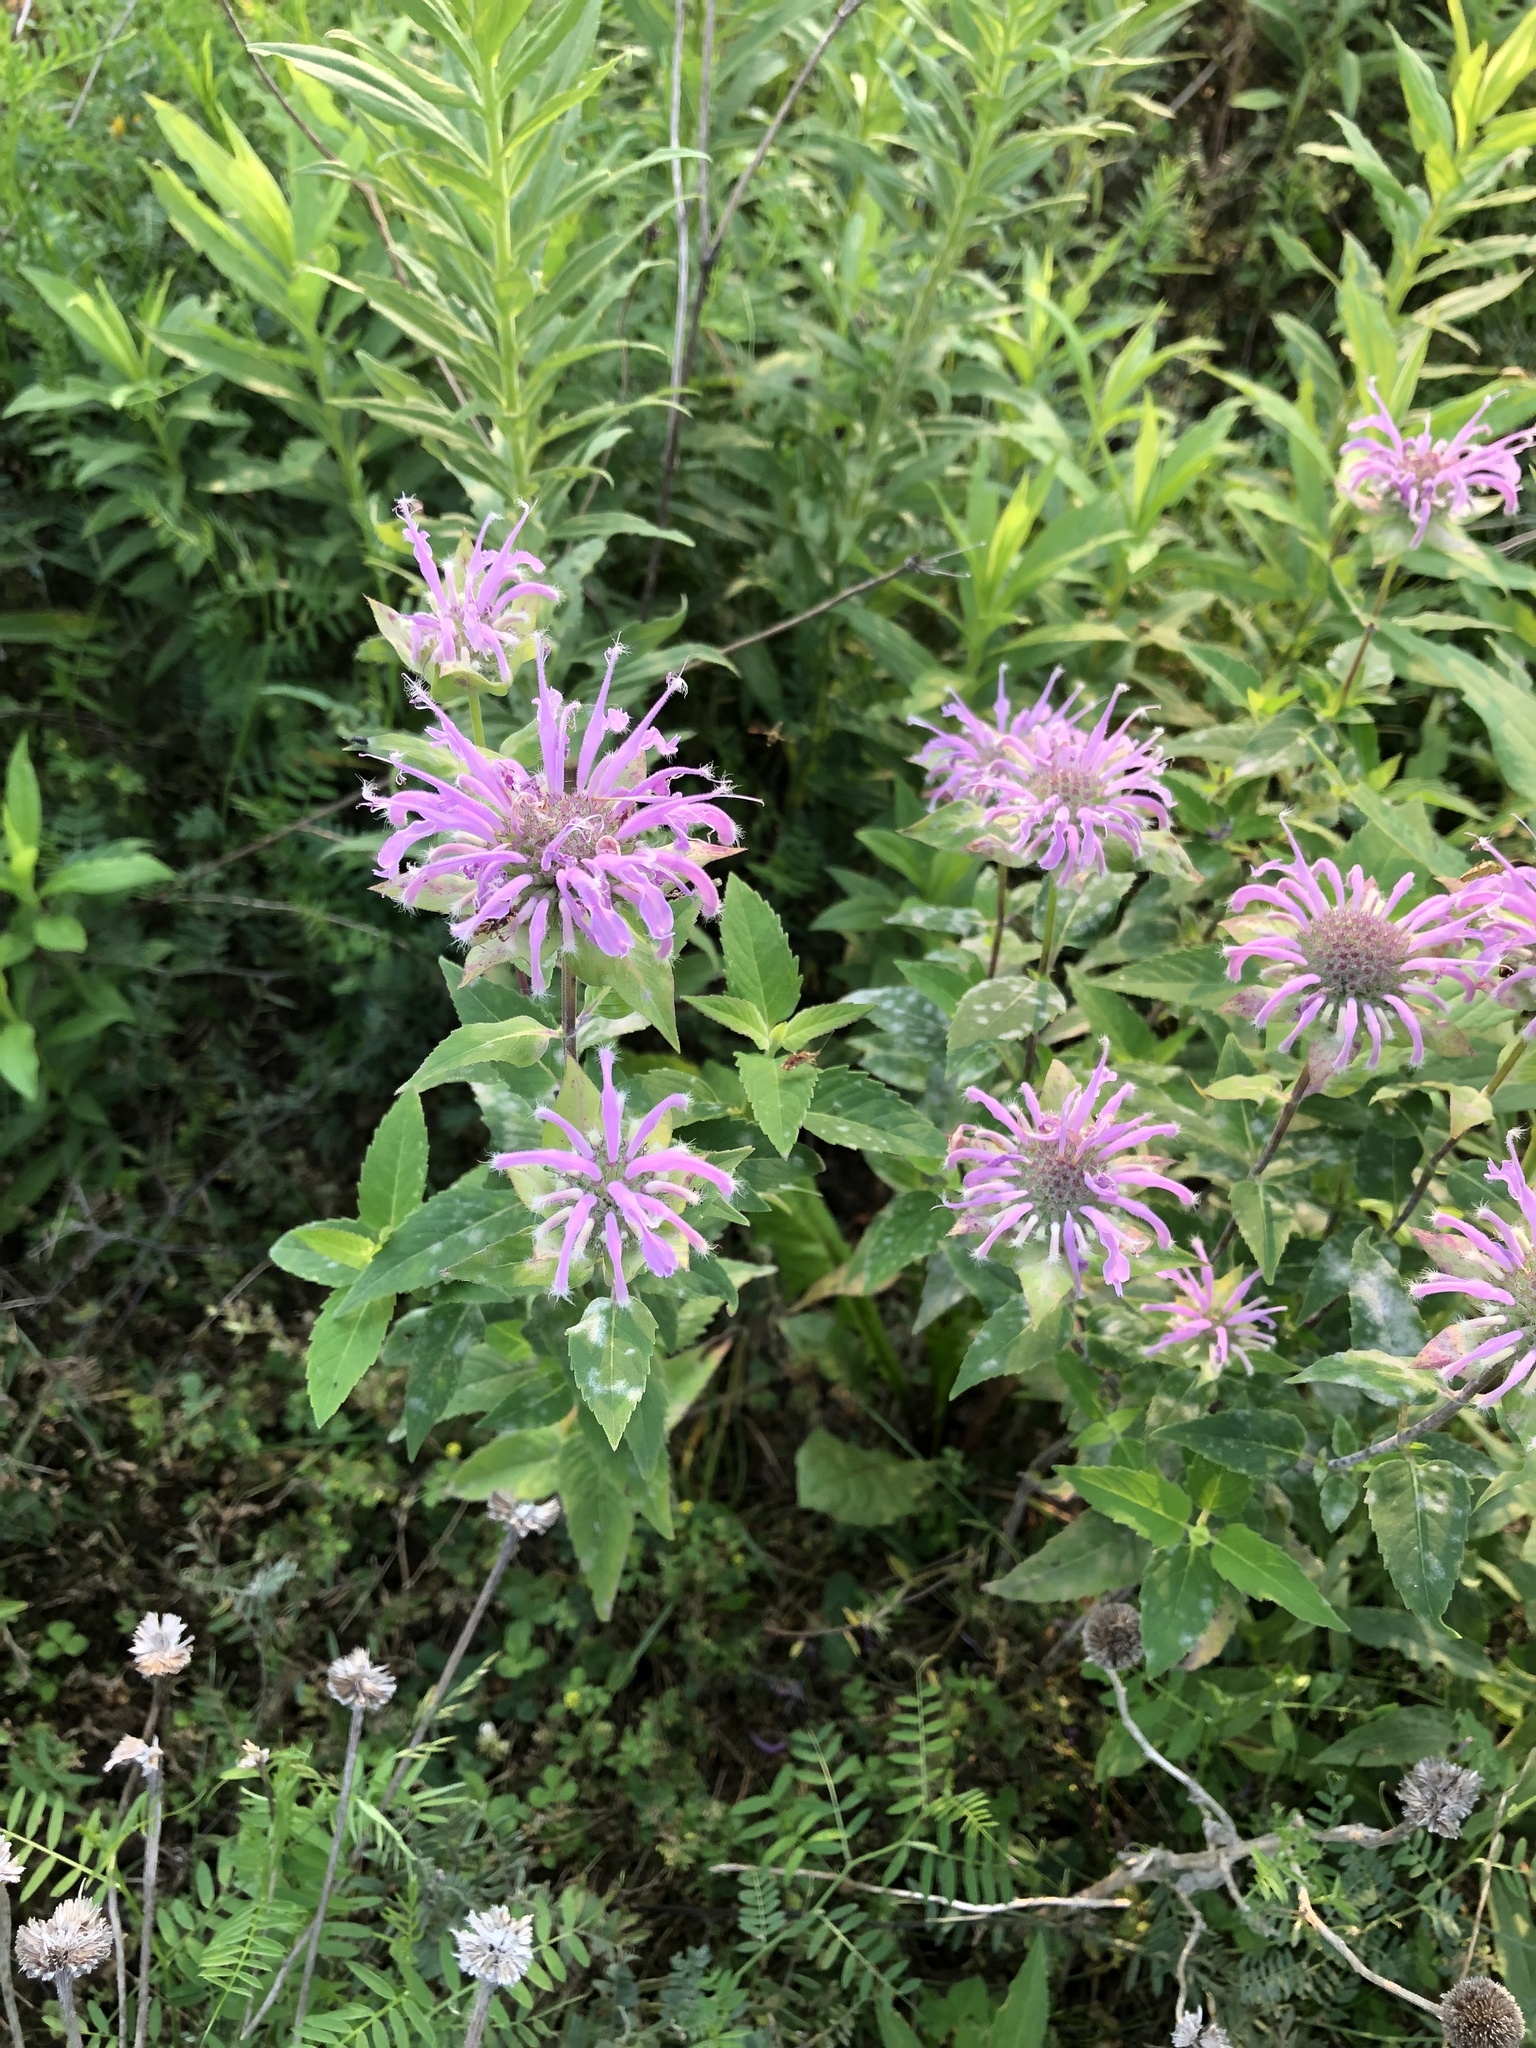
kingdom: Plantae
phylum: Tracheophyta
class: Magnoliopsida
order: Lamiales
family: Lamiaceae
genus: Monarda
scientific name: Monarda fistulosa
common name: Purple beebalm
